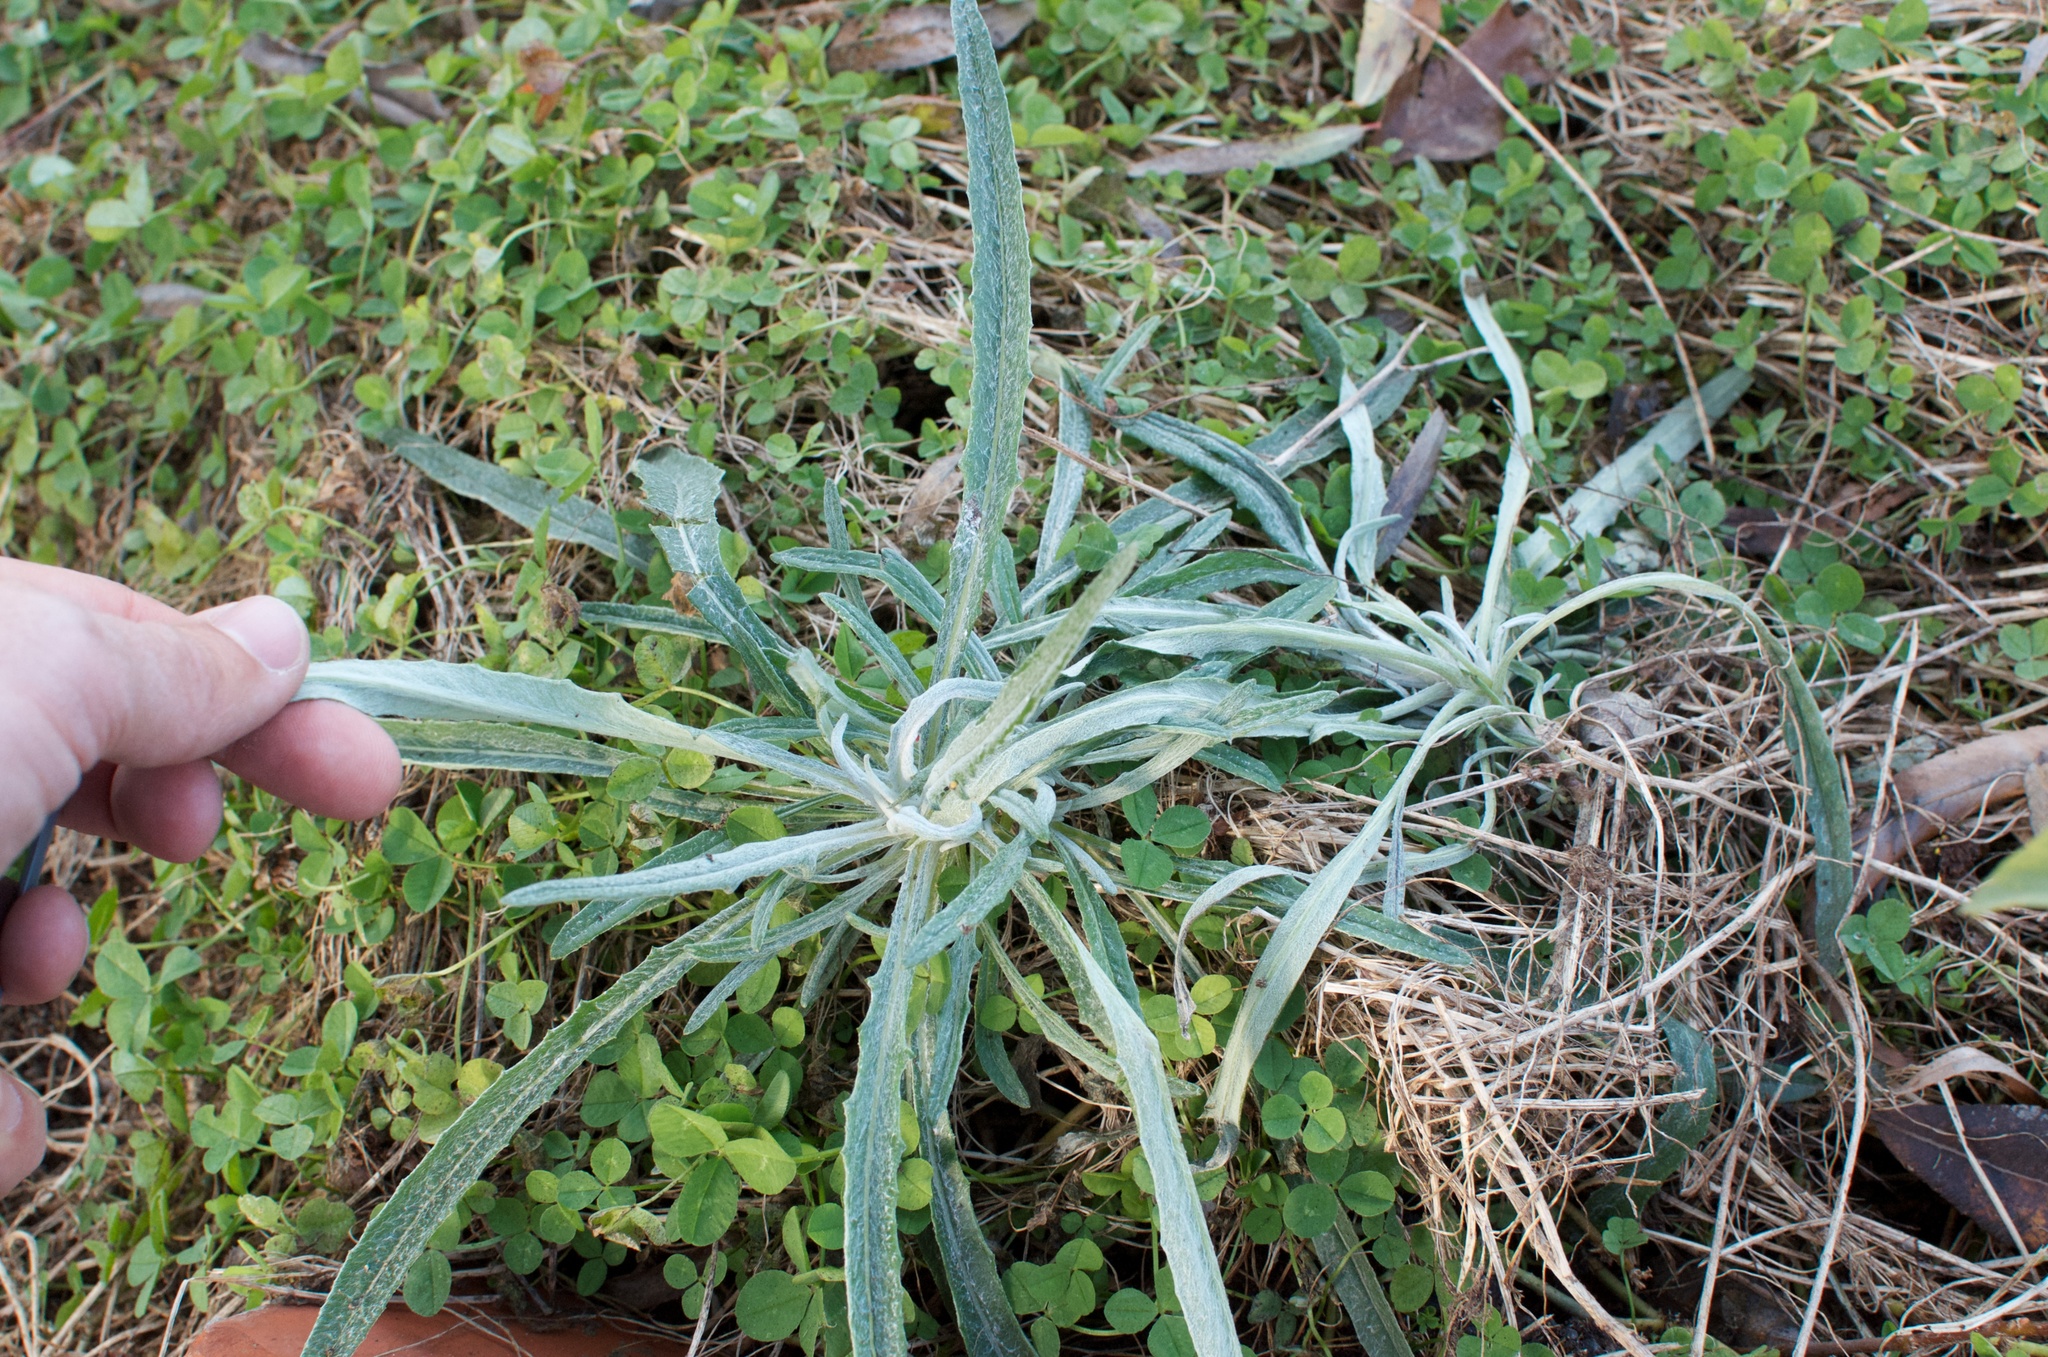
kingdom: Plantae
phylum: Tracheophyta
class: Magnoliopsida
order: Asterales
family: Asteraceae
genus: Senecio
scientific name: Senecio quadridentatus
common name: Cotton fireweed
